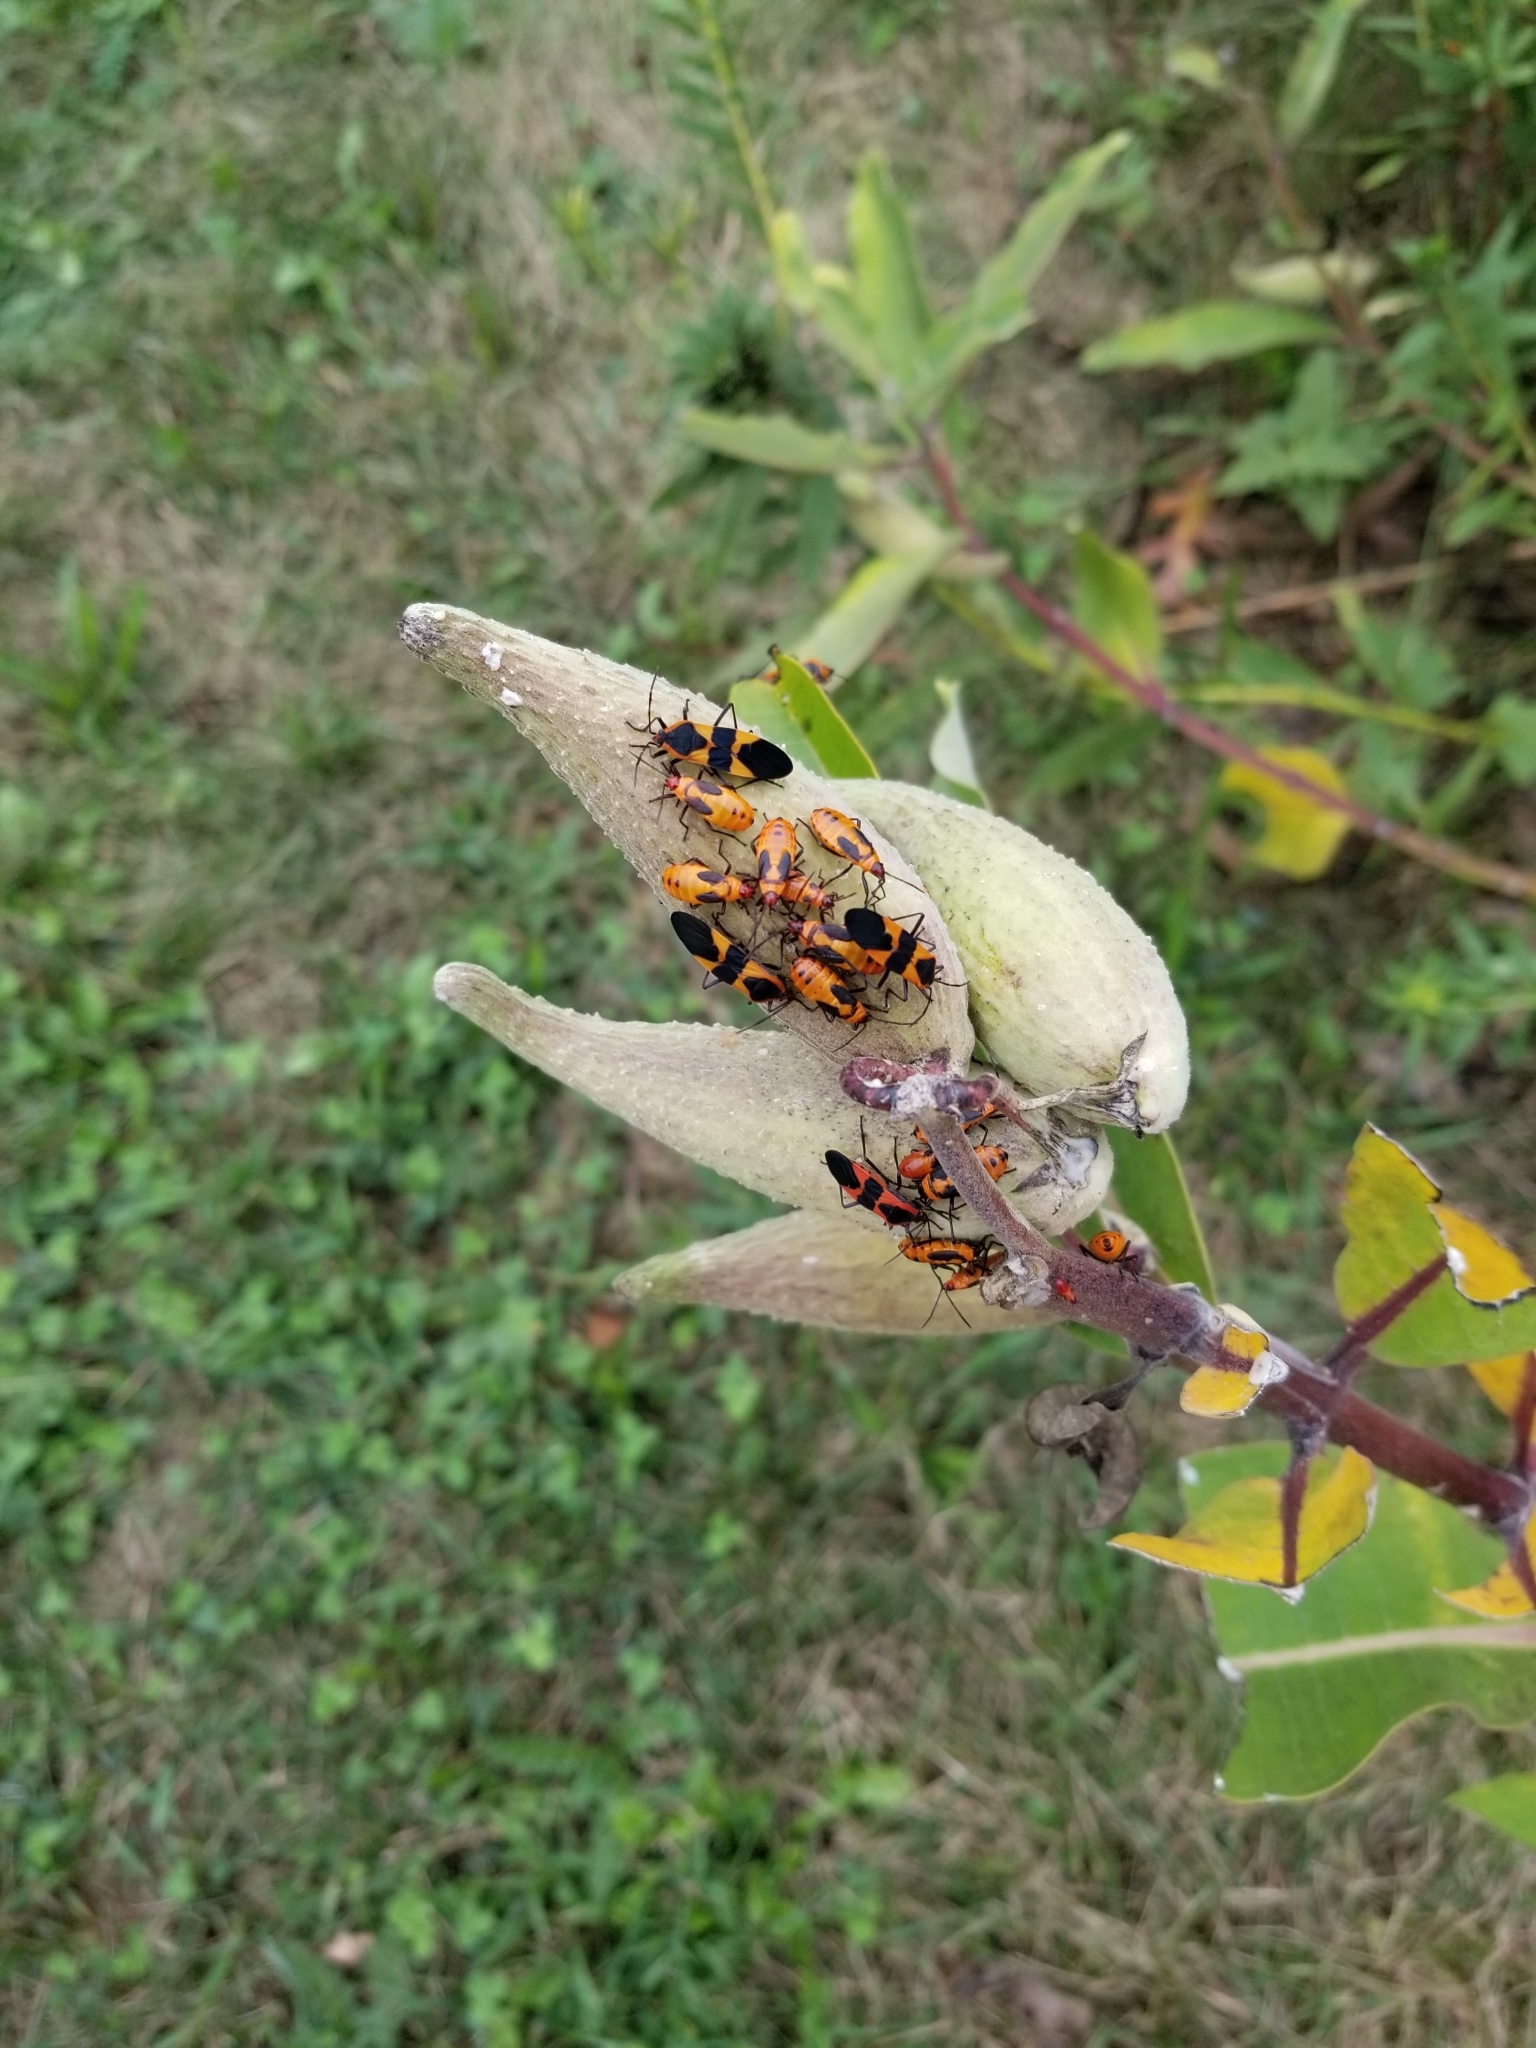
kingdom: Animalia
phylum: Arthropoda
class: Insecta
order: Hemiptera
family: Lygaeidae
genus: Oncopeltus
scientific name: Oncopeltus fasciatus
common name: Large milkweed bug
